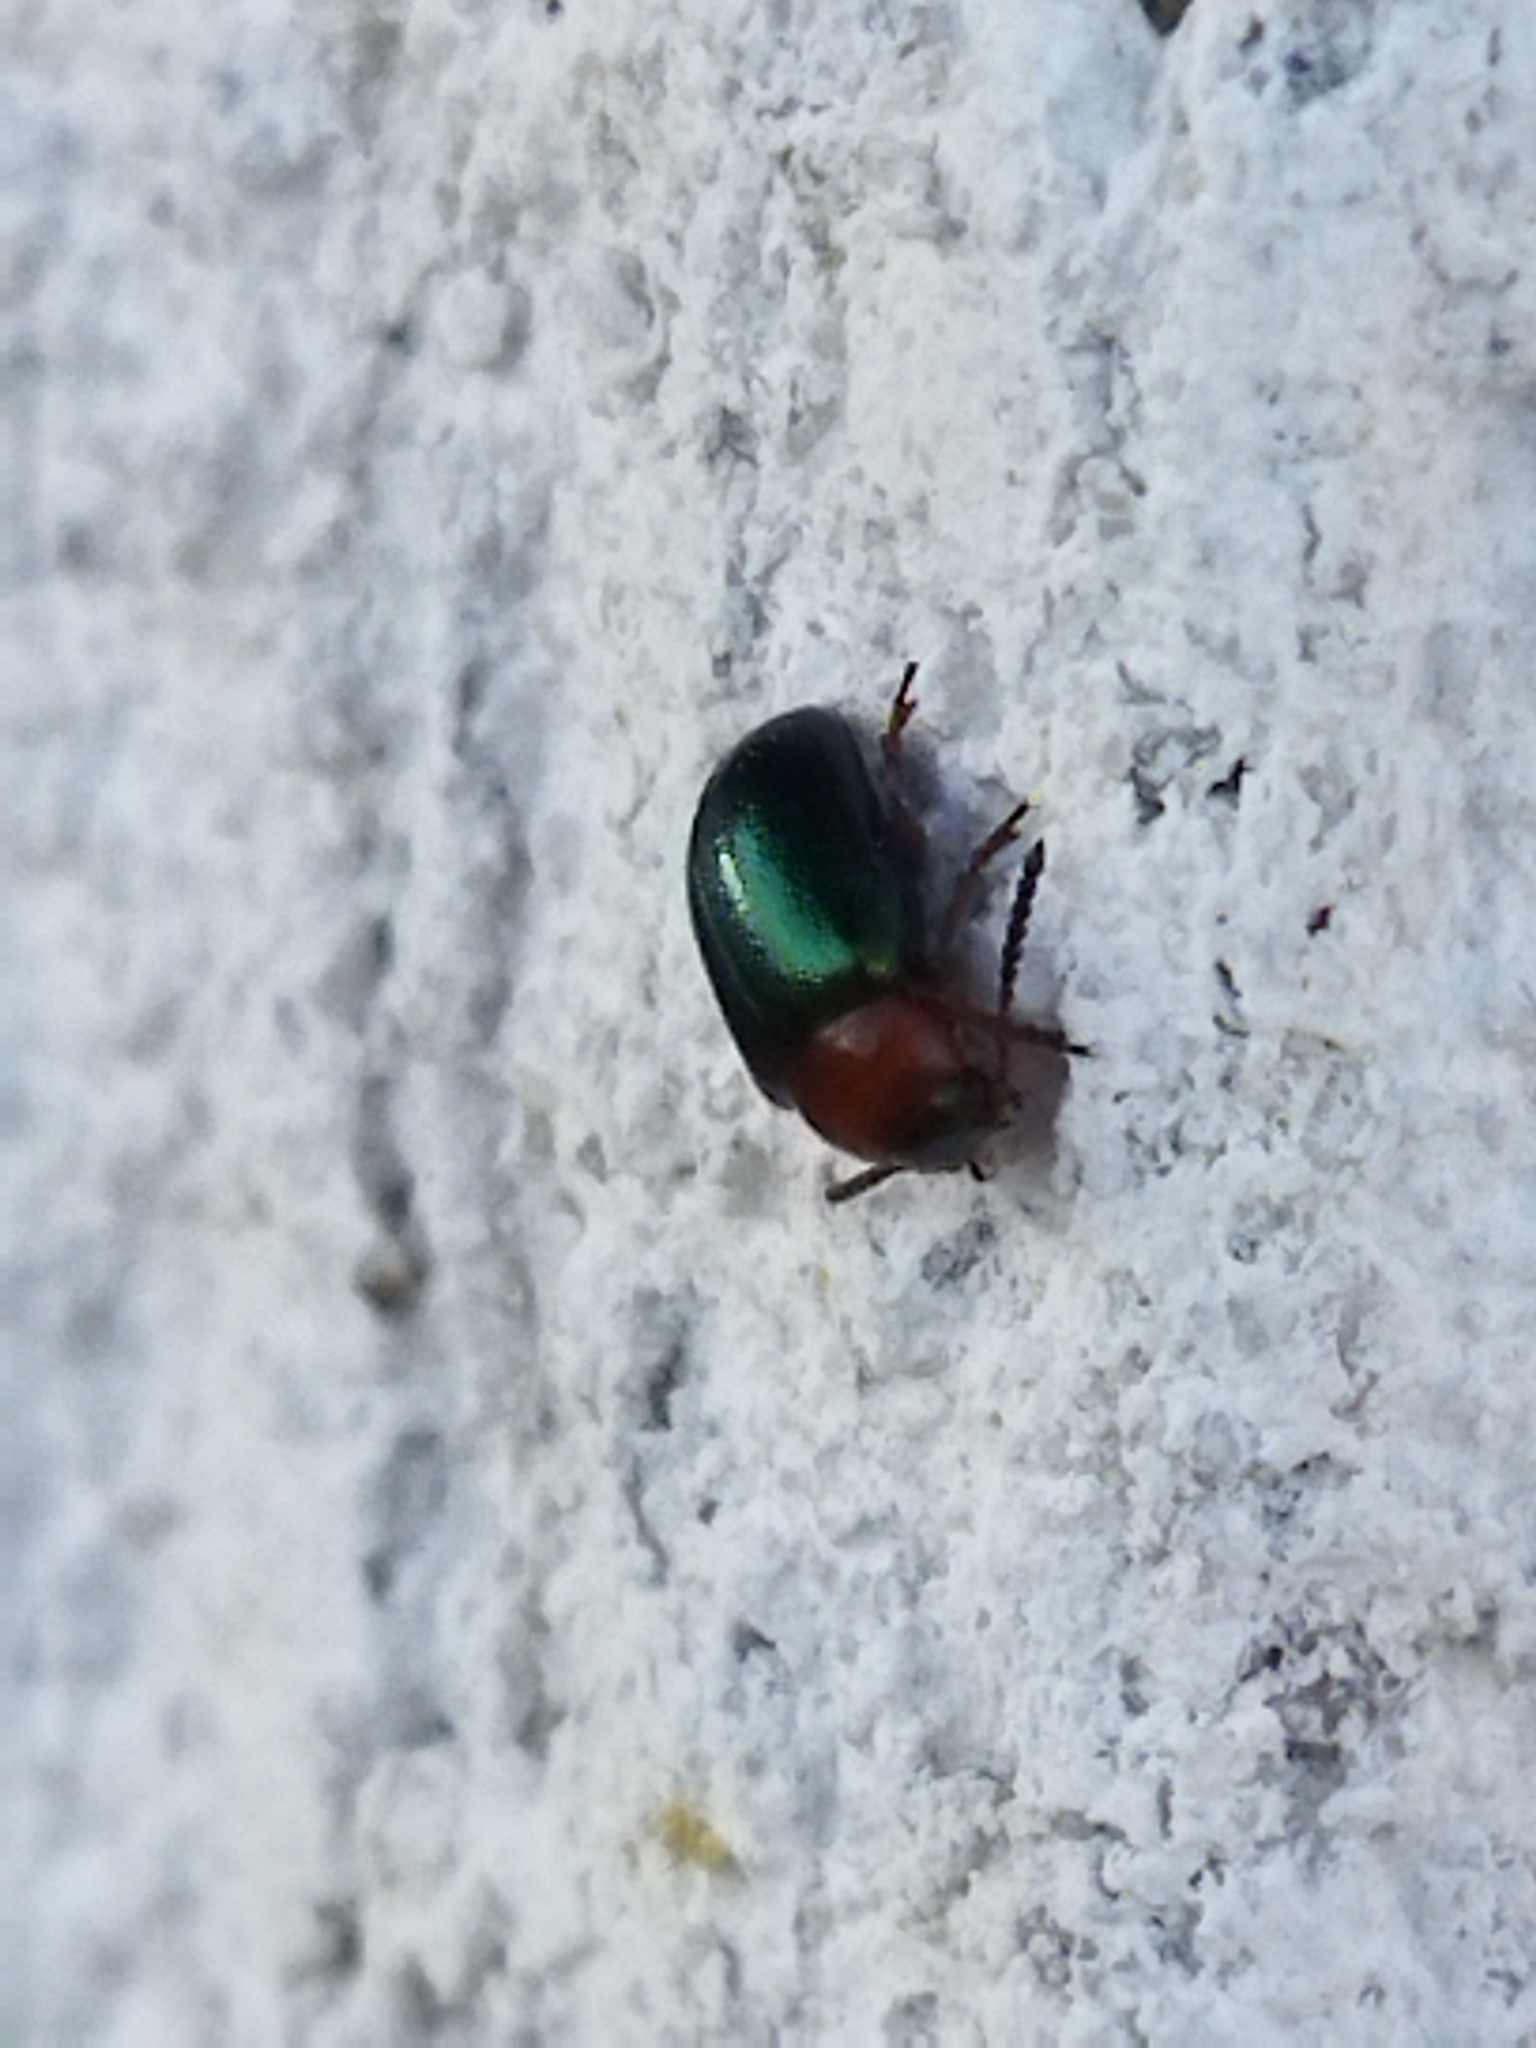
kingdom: Animalia
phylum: Arthropoda
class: Insecta
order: Coleoptera
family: Chrysomelidae
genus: Gastrophysa
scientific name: Gastrophysa polygoni
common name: Knotweed leaf beetle
